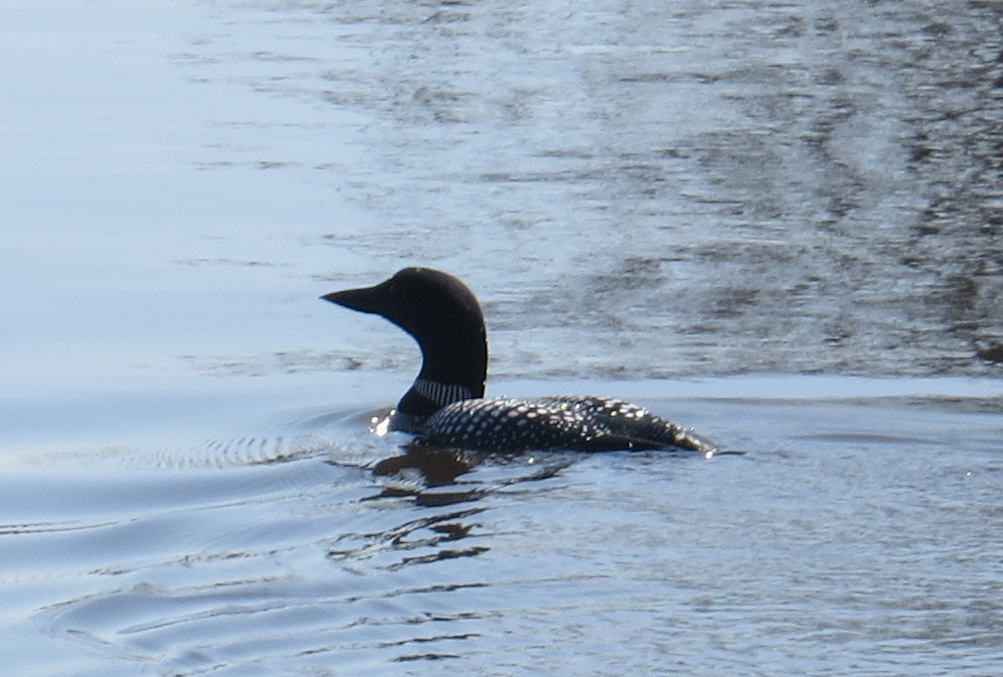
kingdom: Animalia
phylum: Chordata
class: Aves
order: Gaviiformes
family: Gaviidae
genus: Gavia
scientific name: Gavia immer
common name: Common loon
